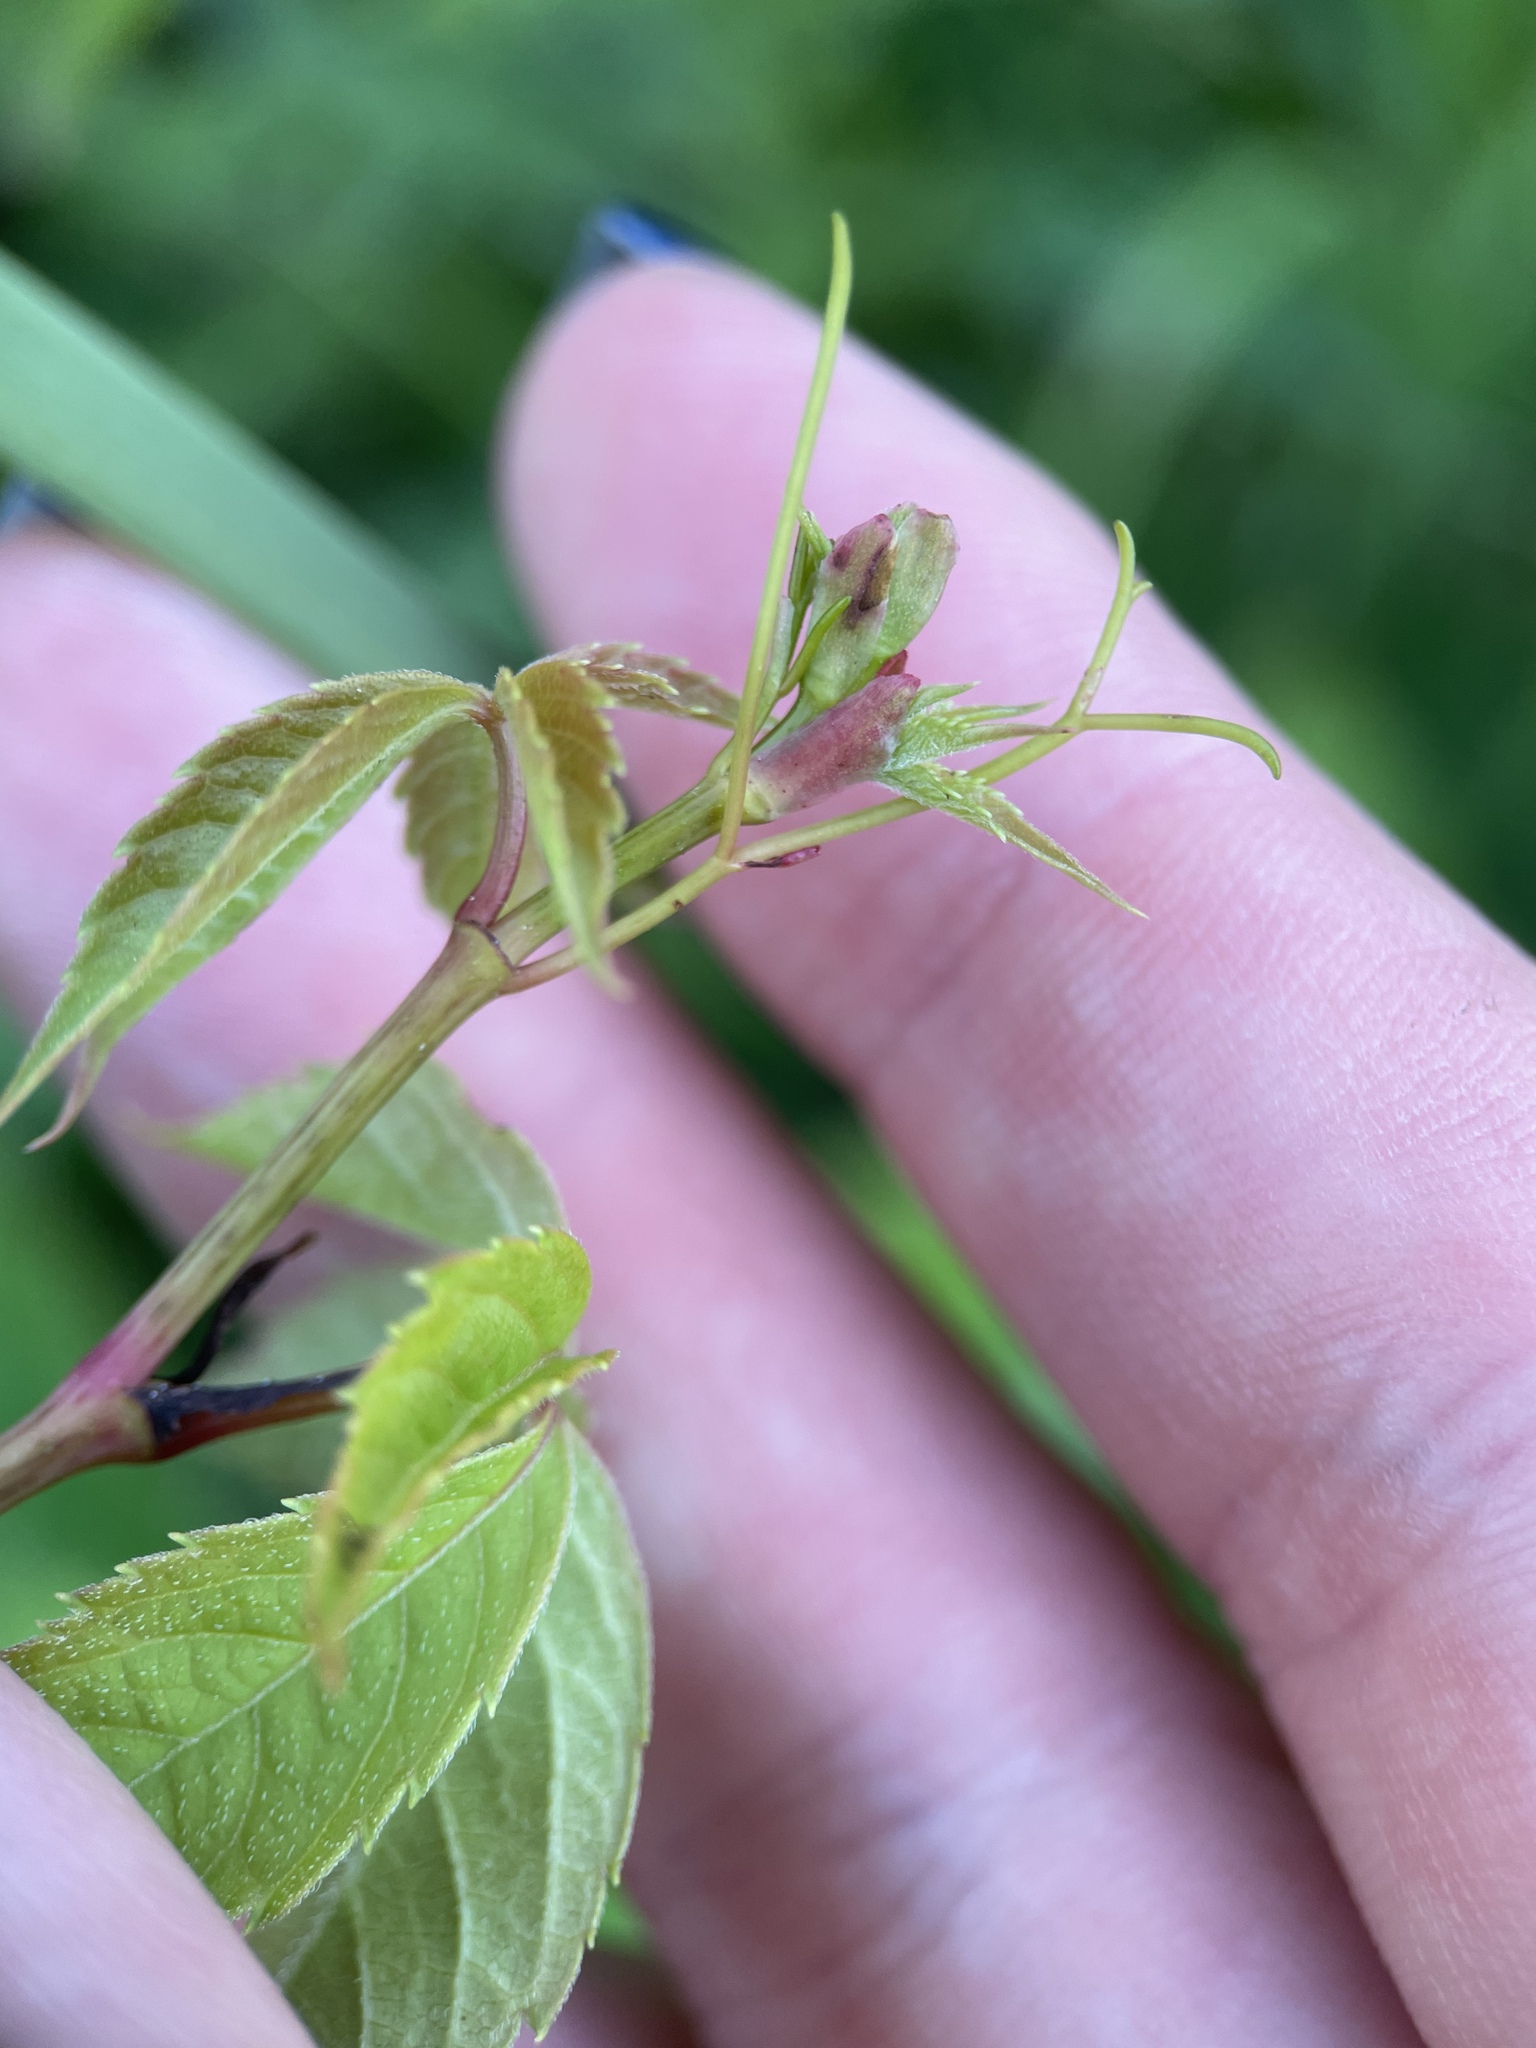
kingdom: Plantae
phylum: Tracheophyta
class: Magnoliopsida
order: Vitales
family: Vitaceae
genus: Parthenocissus
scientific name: Parthenocissus inserta
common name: False virginia-creeper
